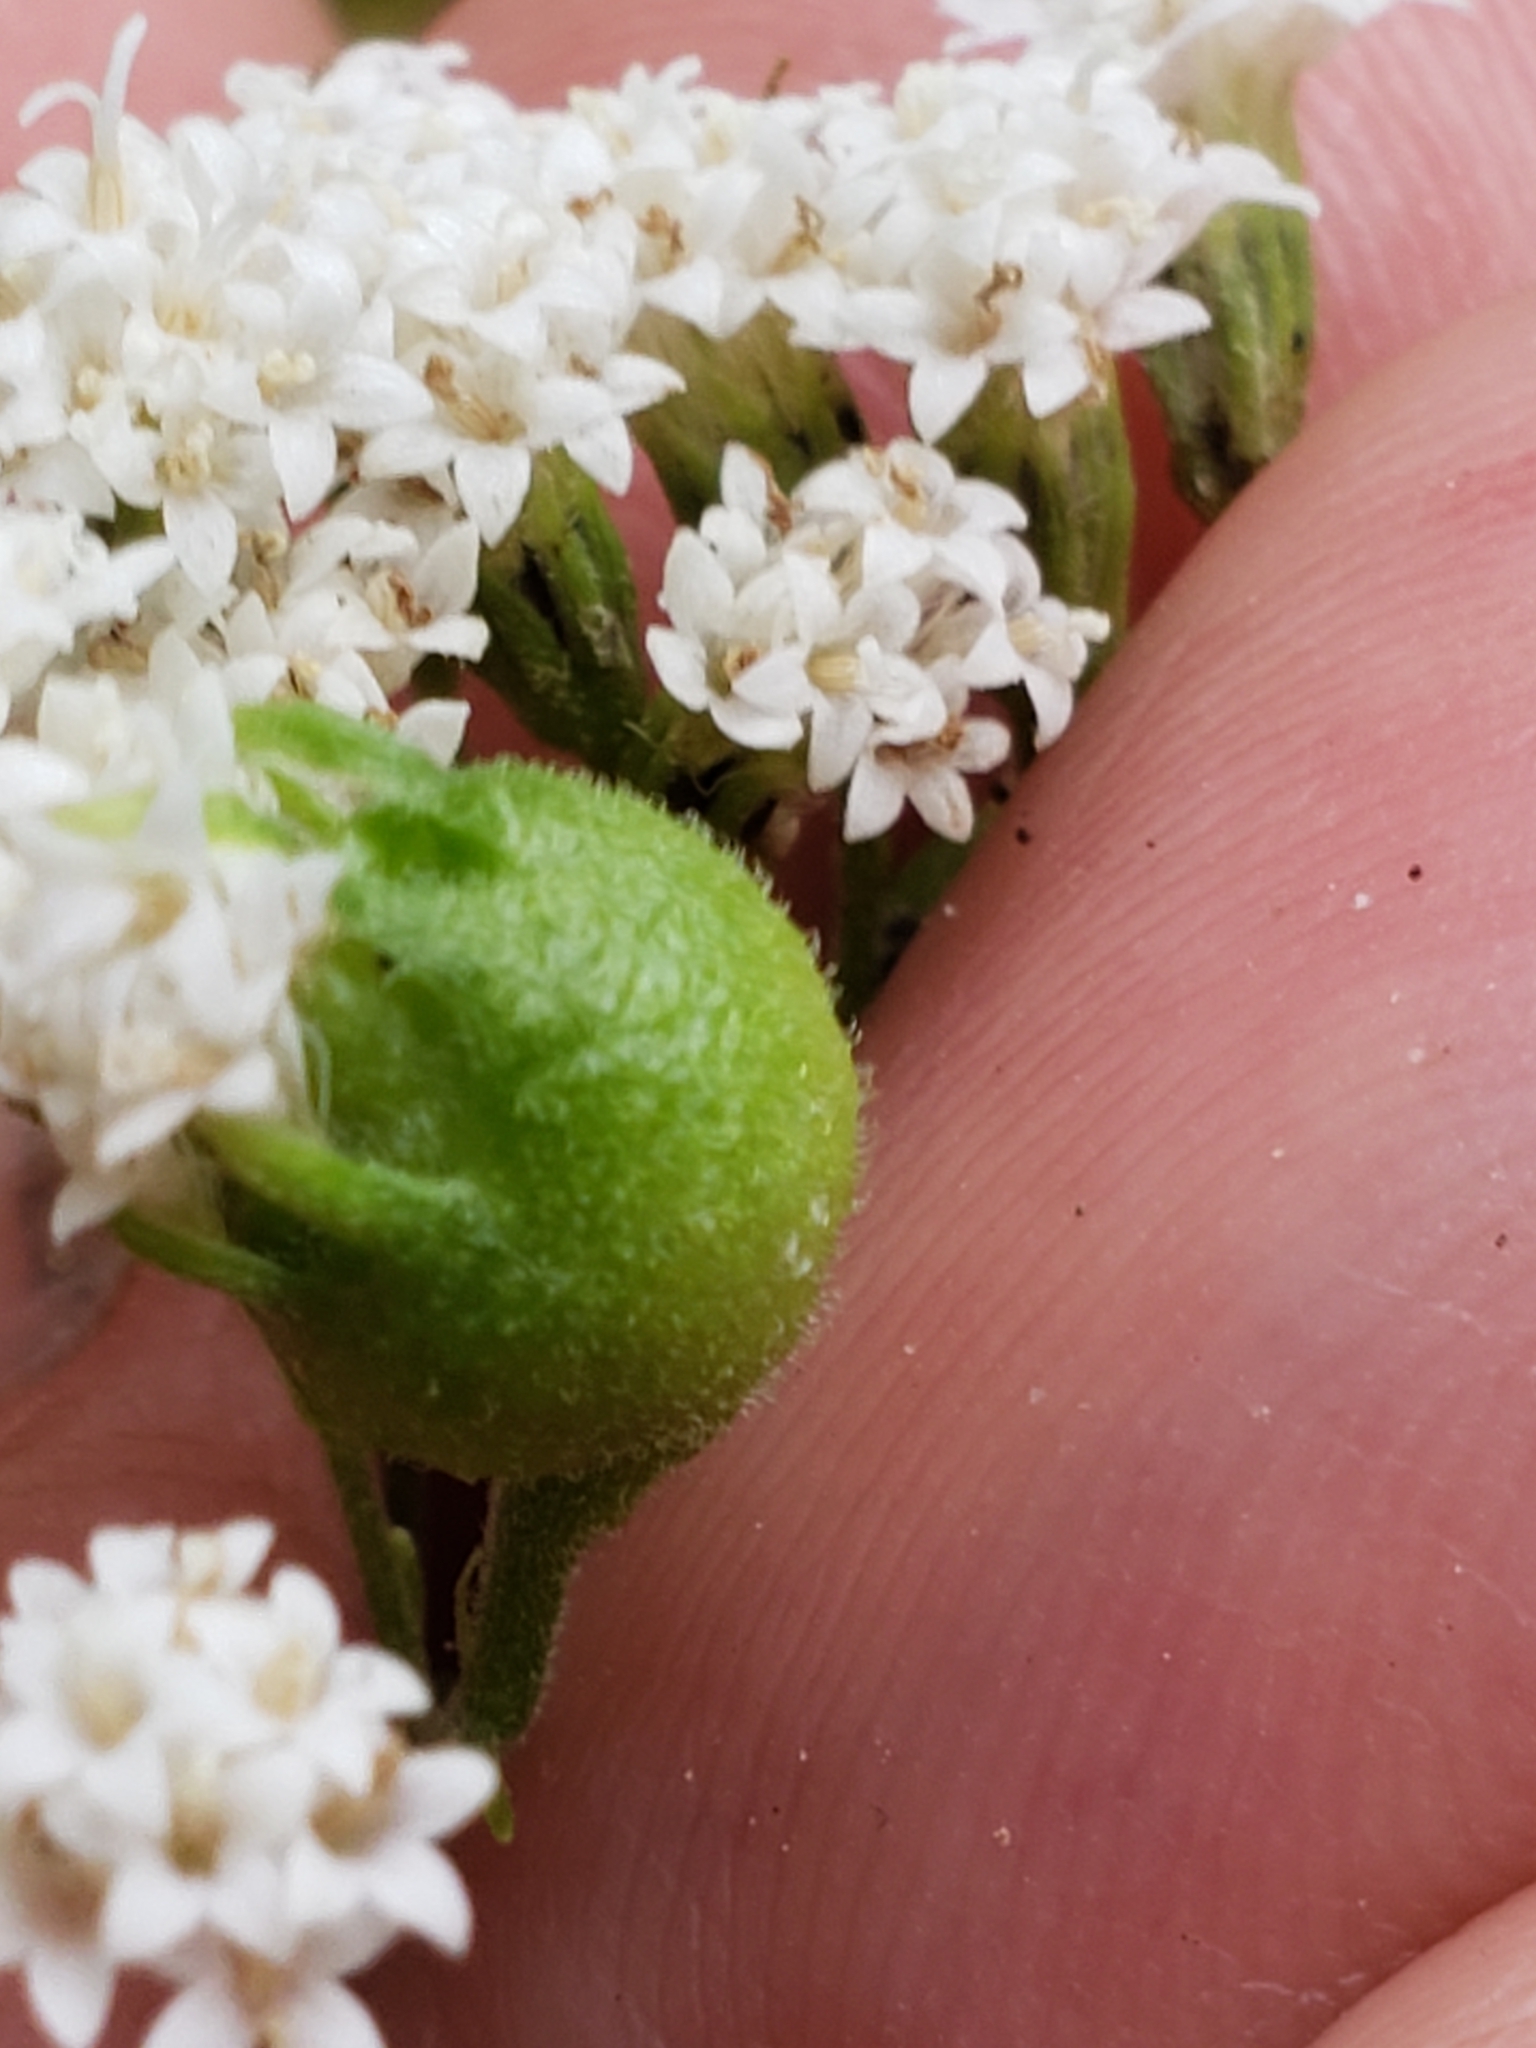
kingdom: Animalia
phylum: Arthropoda
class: Insecta
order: Diptera
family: Cecidomyiidae
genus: Schizomyia
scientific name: Schizomyia eupatoriflorae
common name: Boneset flower gall midge
